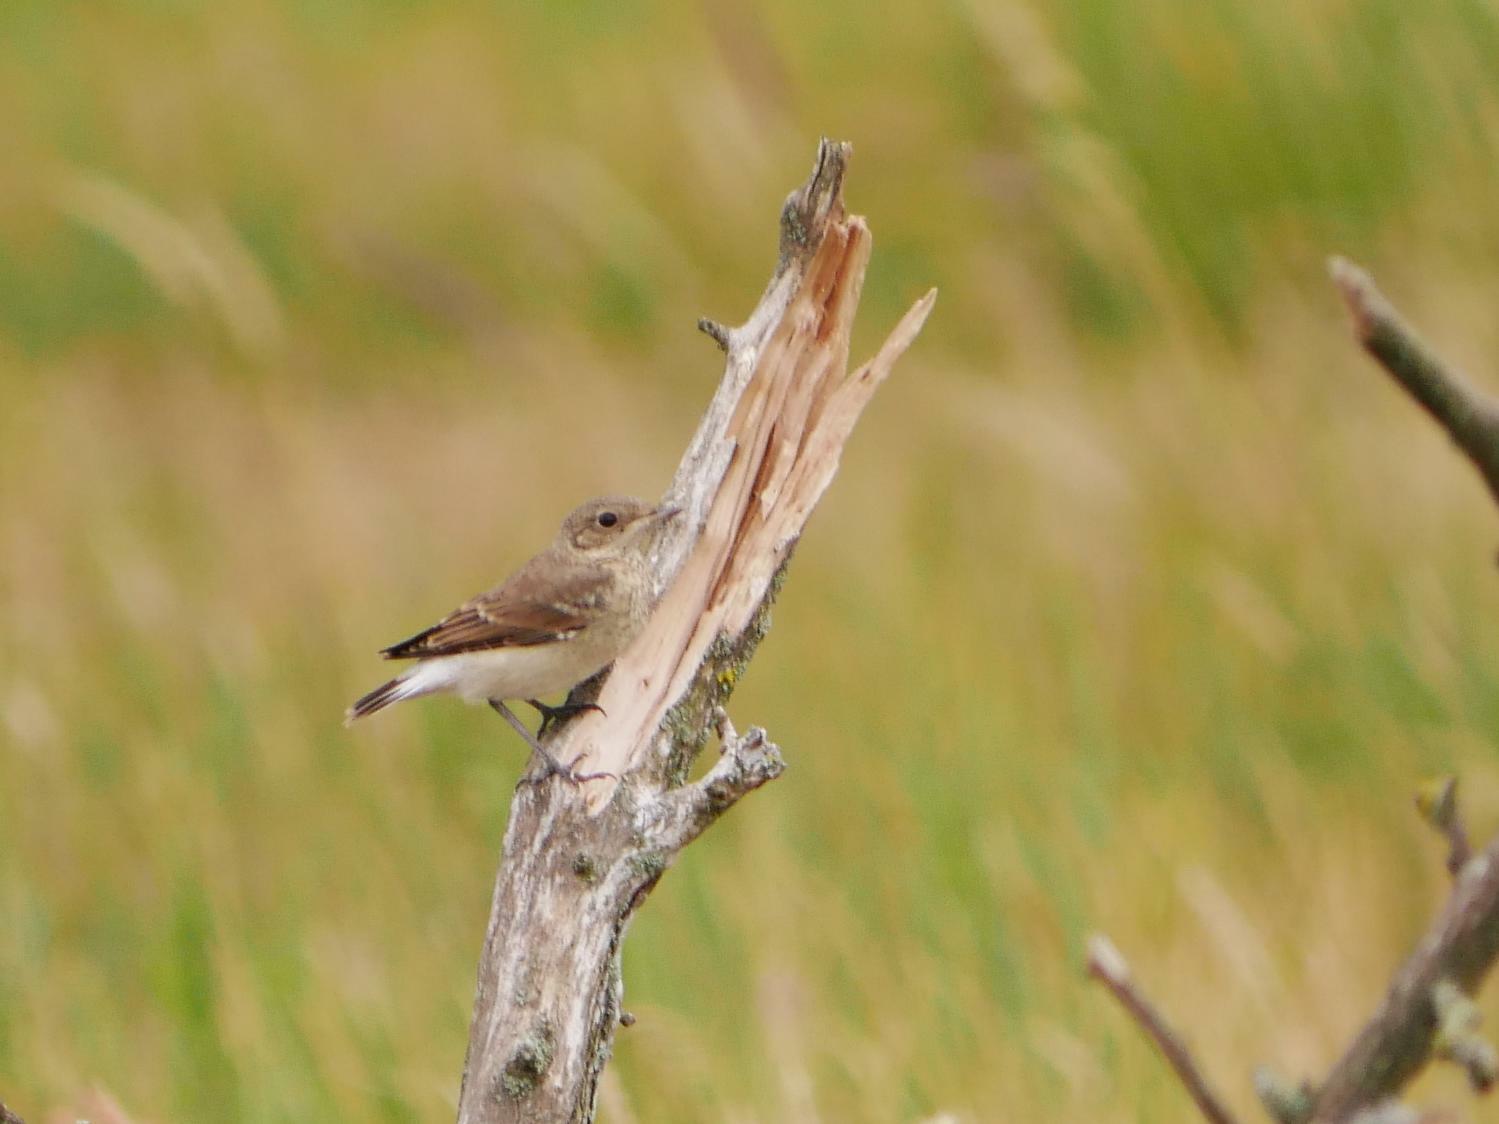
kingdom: Animalia
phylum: Chordata
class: Aves
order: Passeriformes
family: Muscicapidae
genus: Oenanthe
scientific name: Oenanthe oenanthe
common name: Northern wheatear
